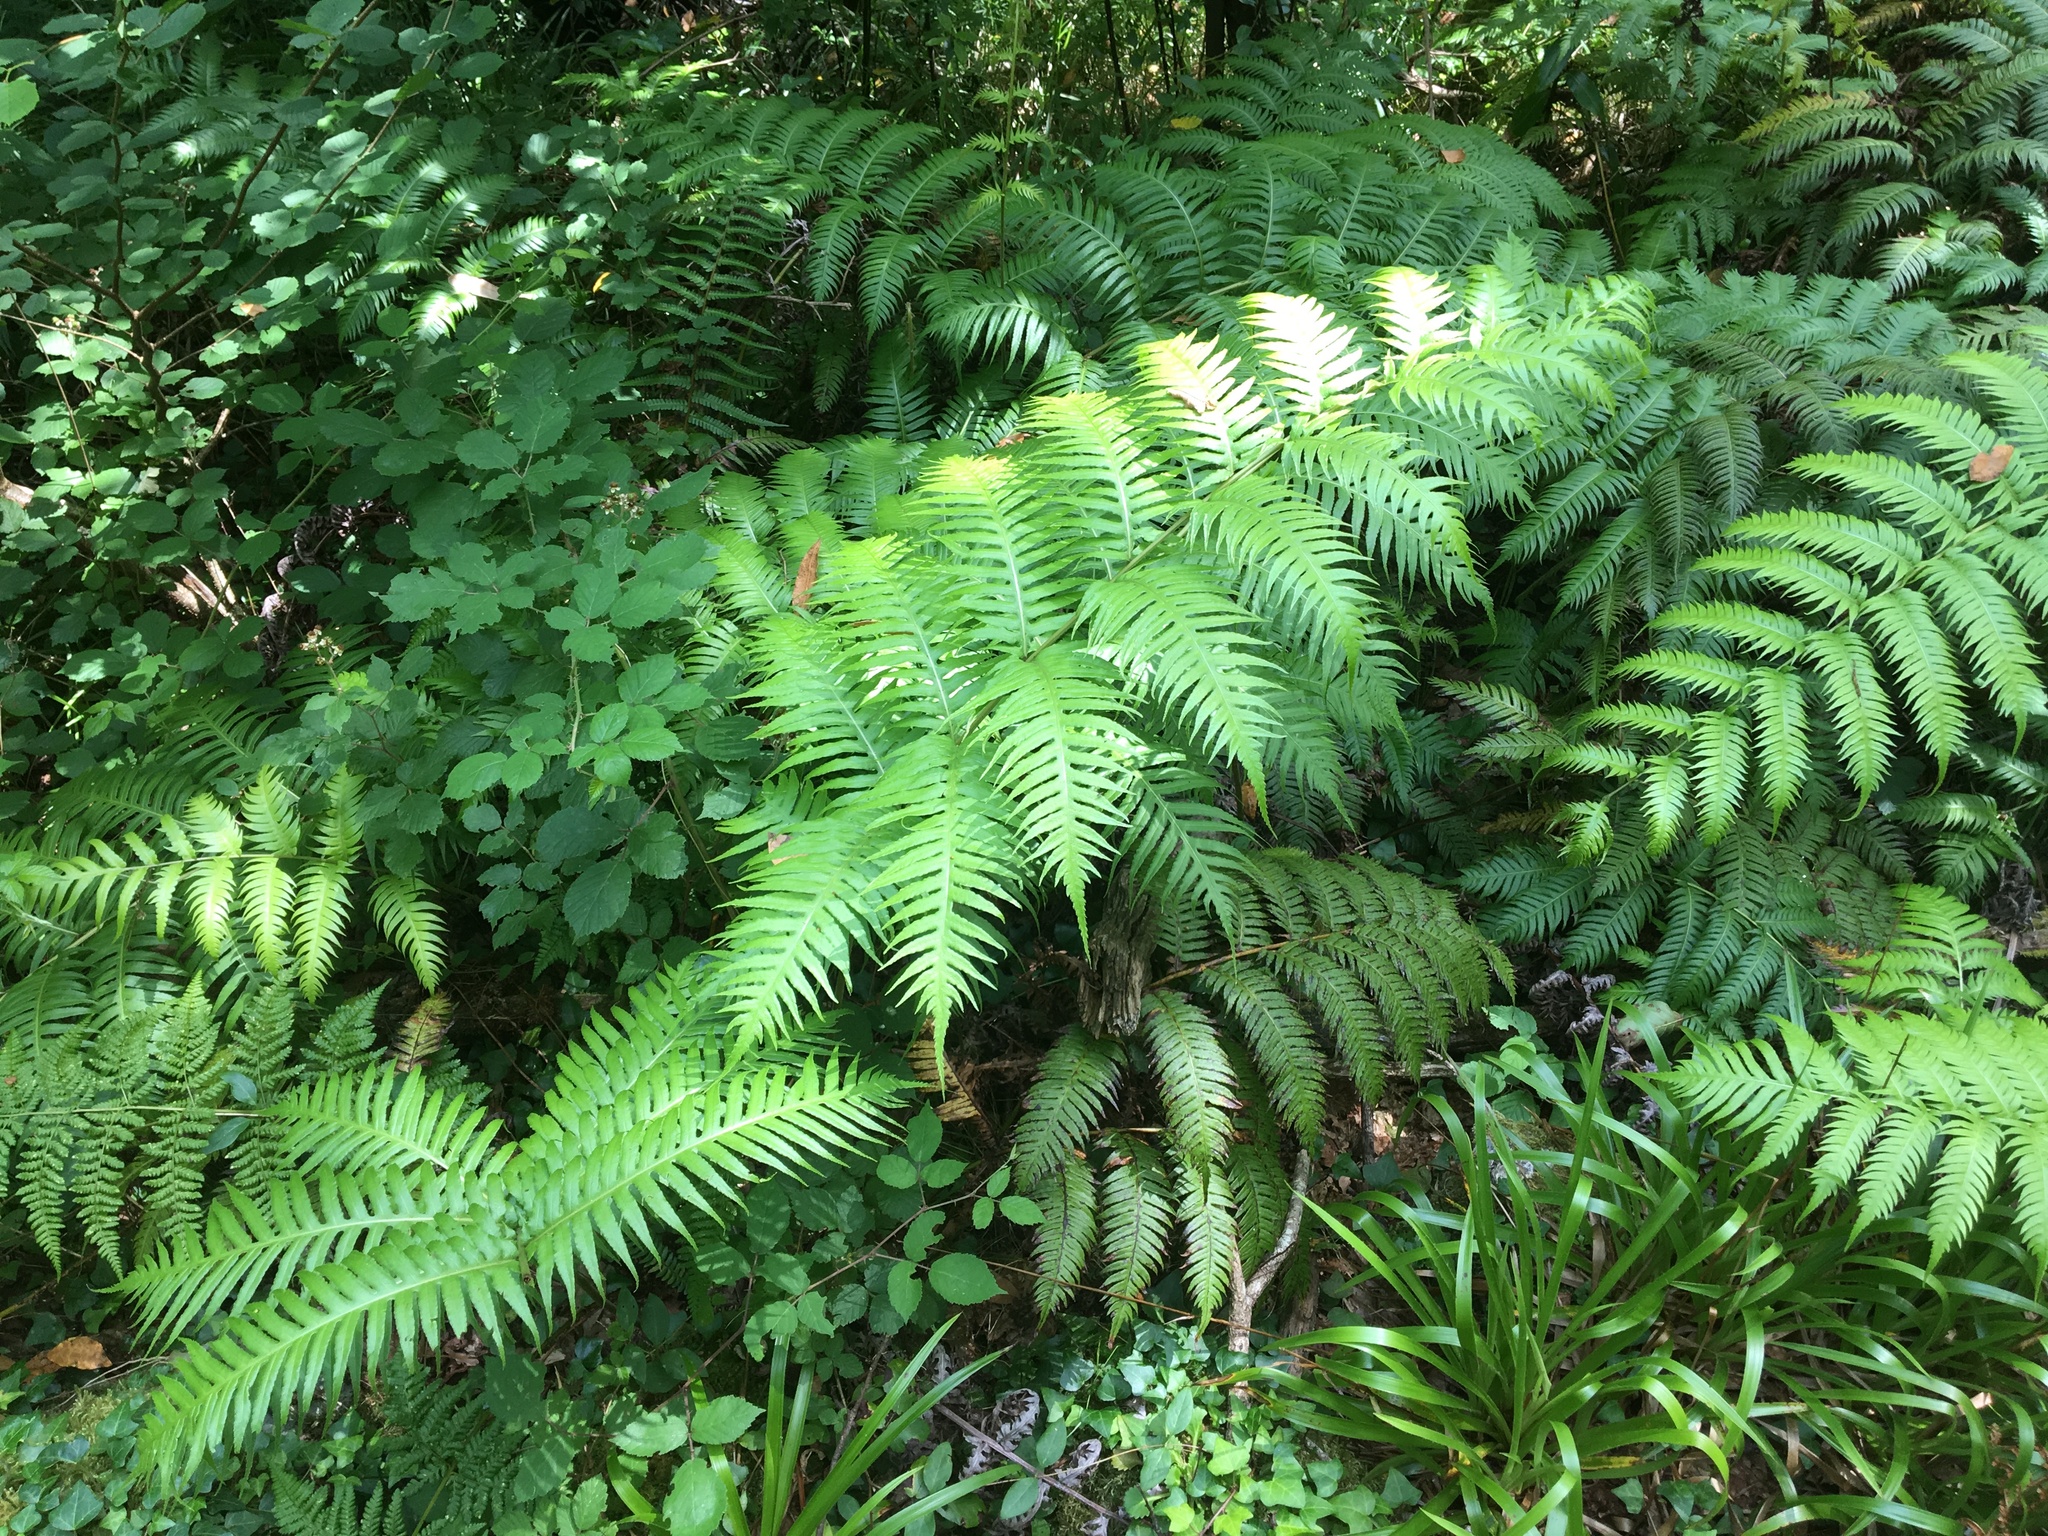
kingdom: Plantae
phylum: Tracheophyta
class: Polypodiopsida
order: Polypodiales
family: Blechnaceae
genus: Woodwardia
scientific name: Woodwardia radicans
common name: Rooting chainfern
